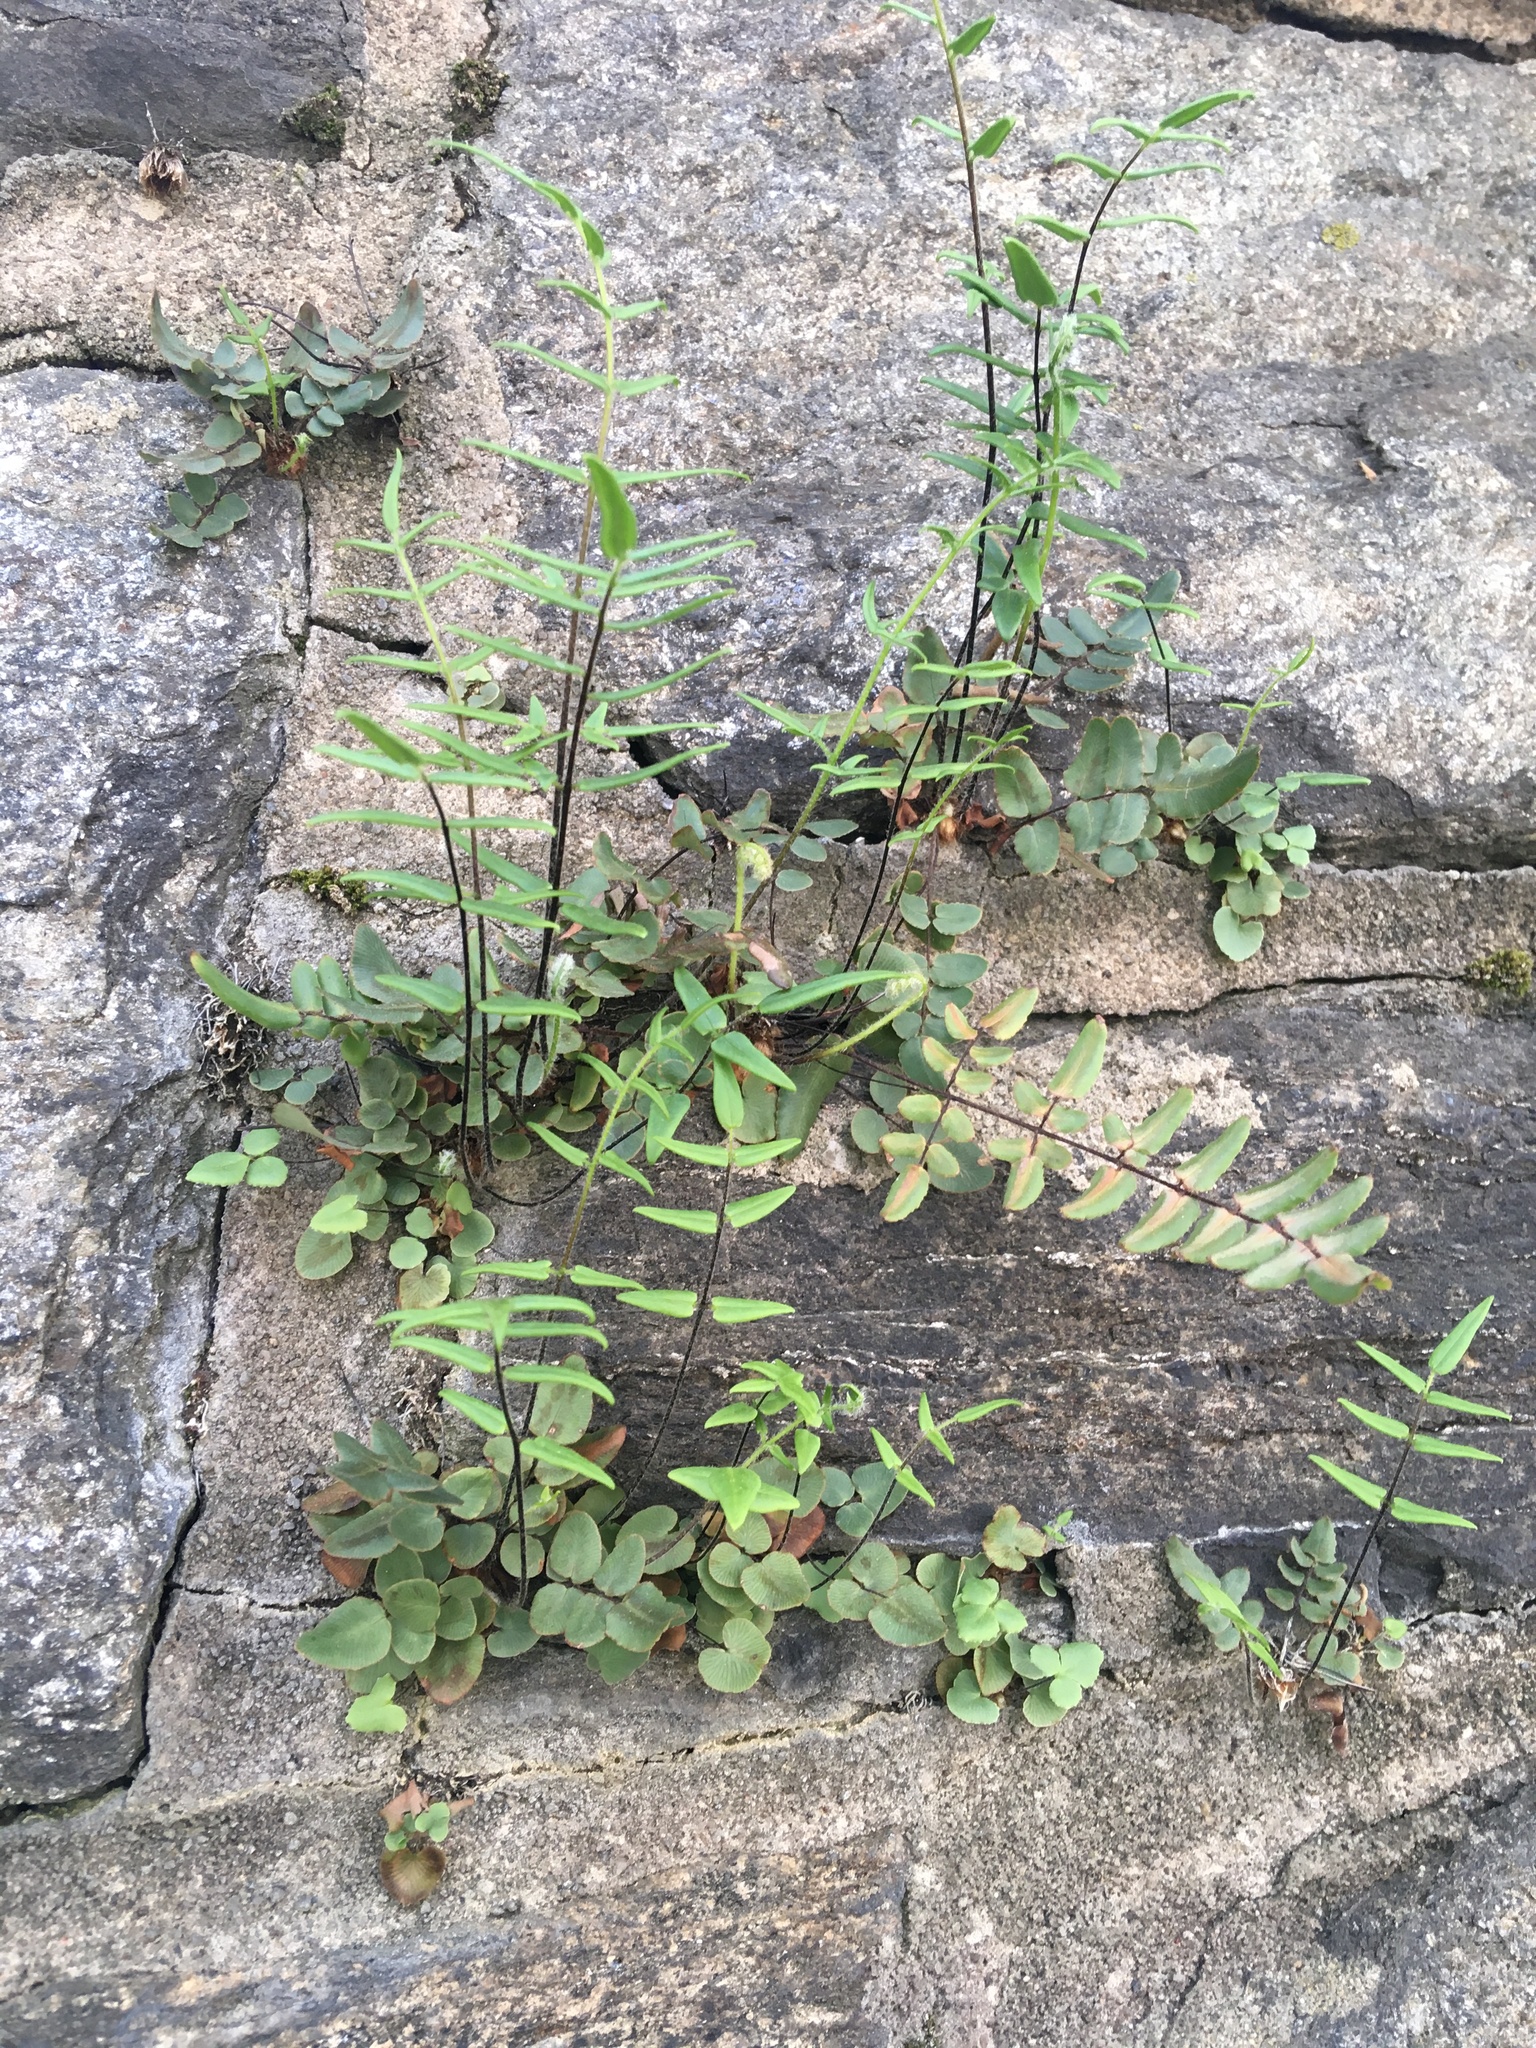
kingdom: Plantae
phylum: Tracheophyta
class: Polypodiopsida
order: Polypodiales
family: Pteridaceae
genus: Pellaea
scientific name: Pellaea atropurpurea
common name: Hairy cliffbrake
